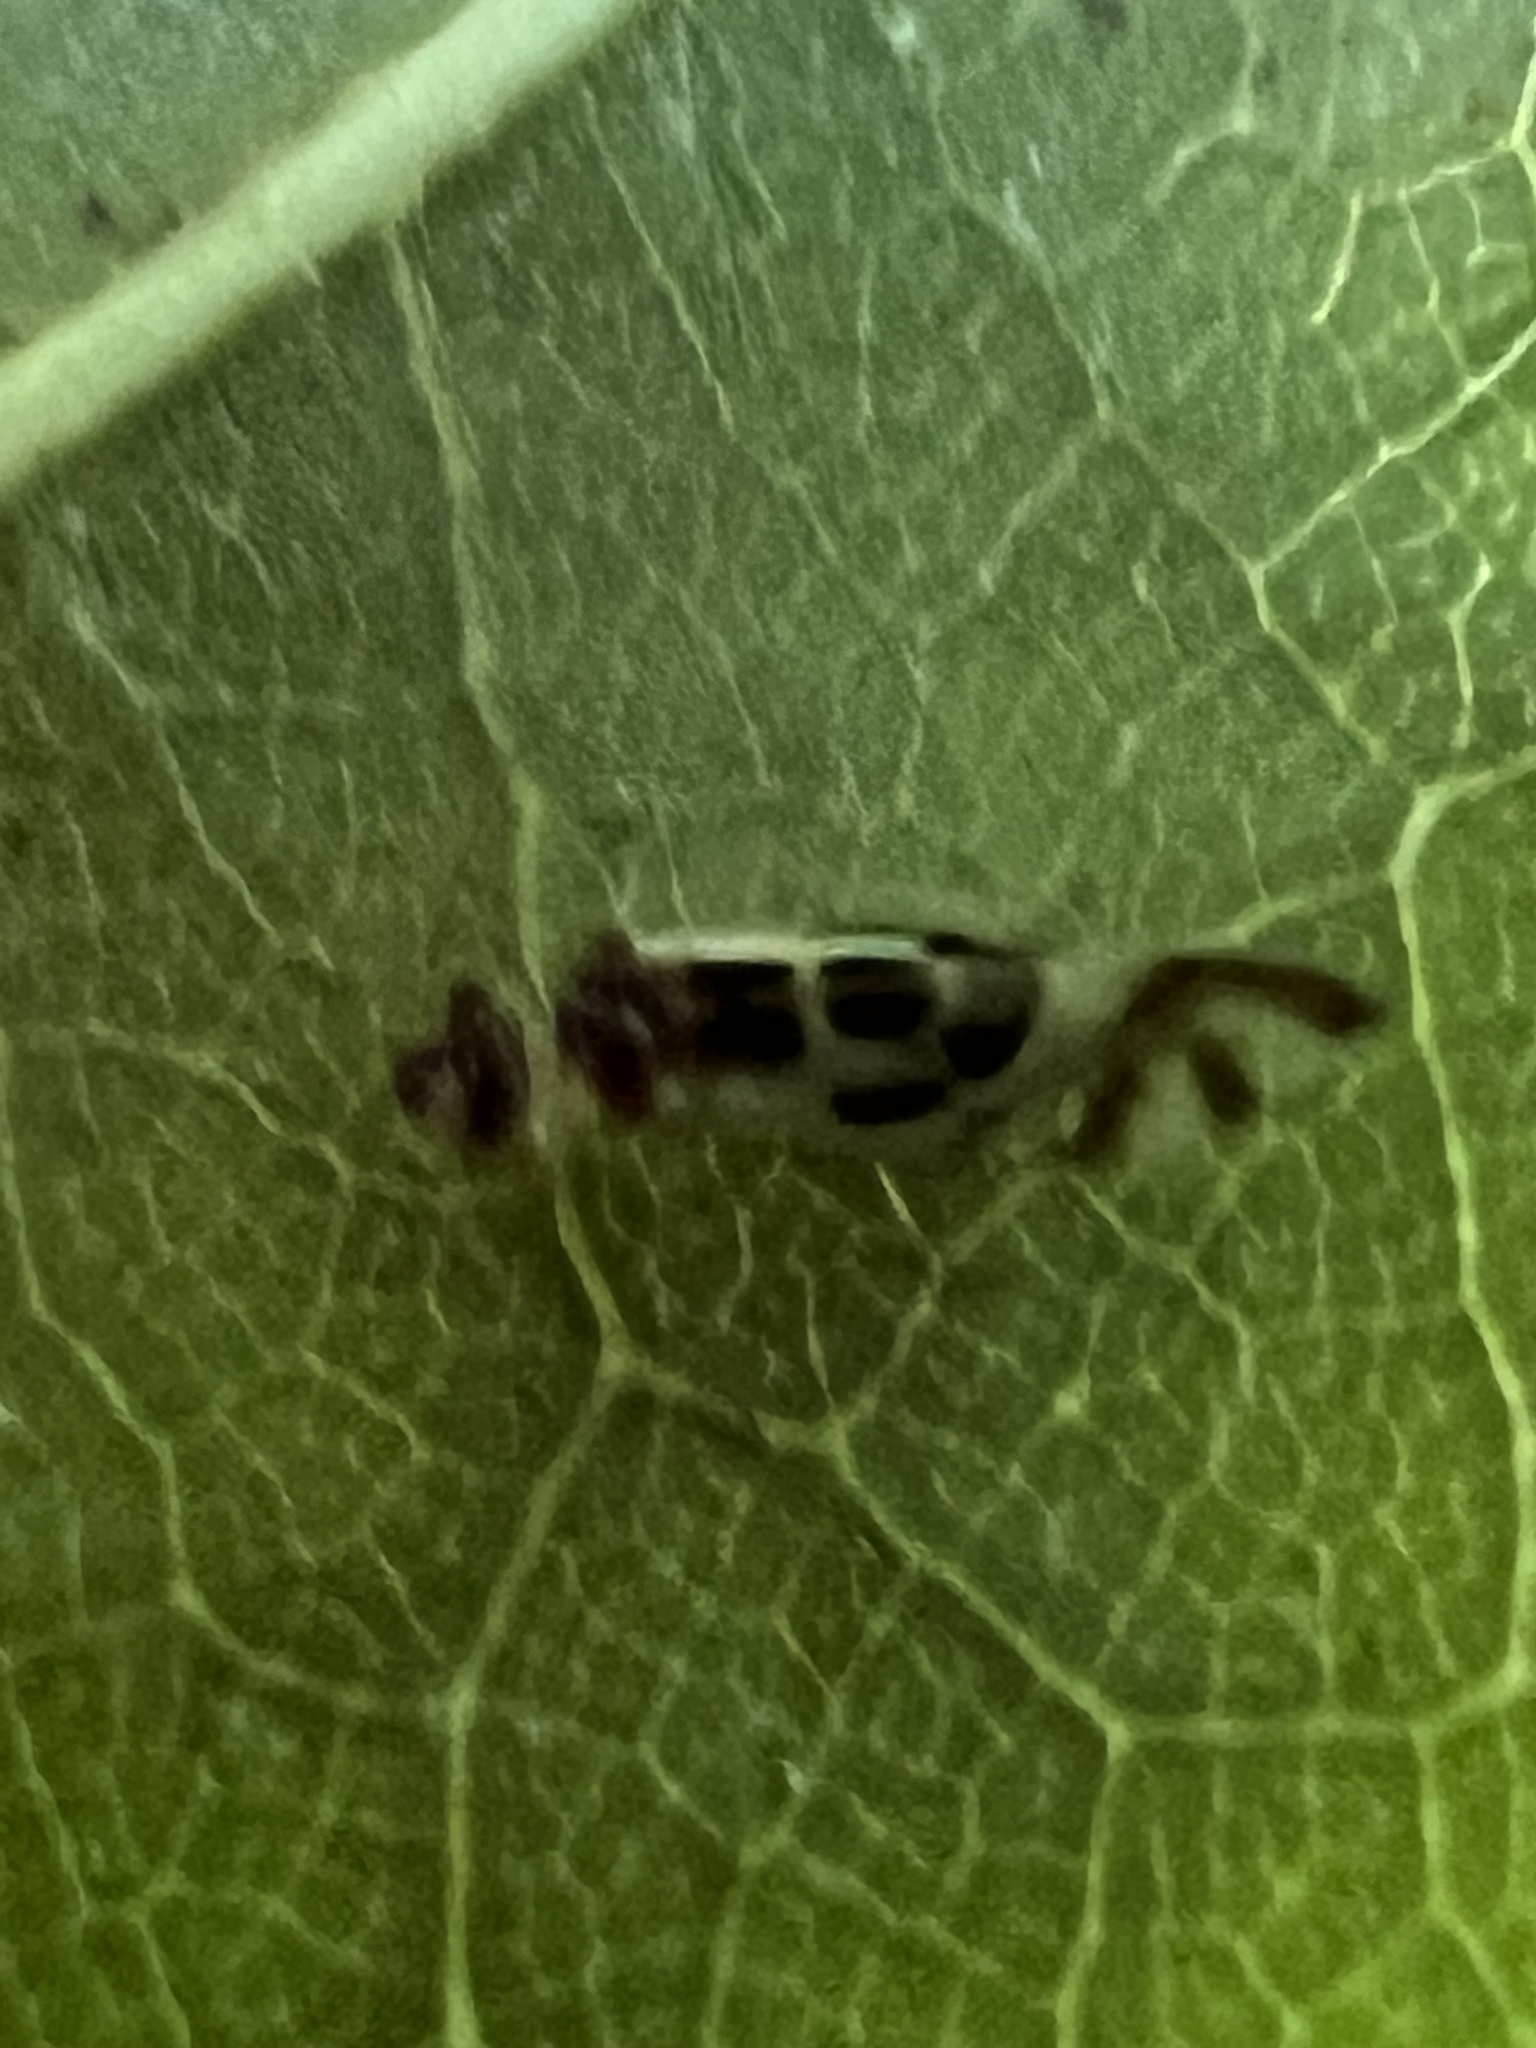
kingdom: Animalia
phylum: Arthropoda
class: Insecta
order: Psocodea
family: Stenopsocidae
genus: Graphopsocus
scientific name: Graphopsocus cruciatus
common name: Lizard bark louse
